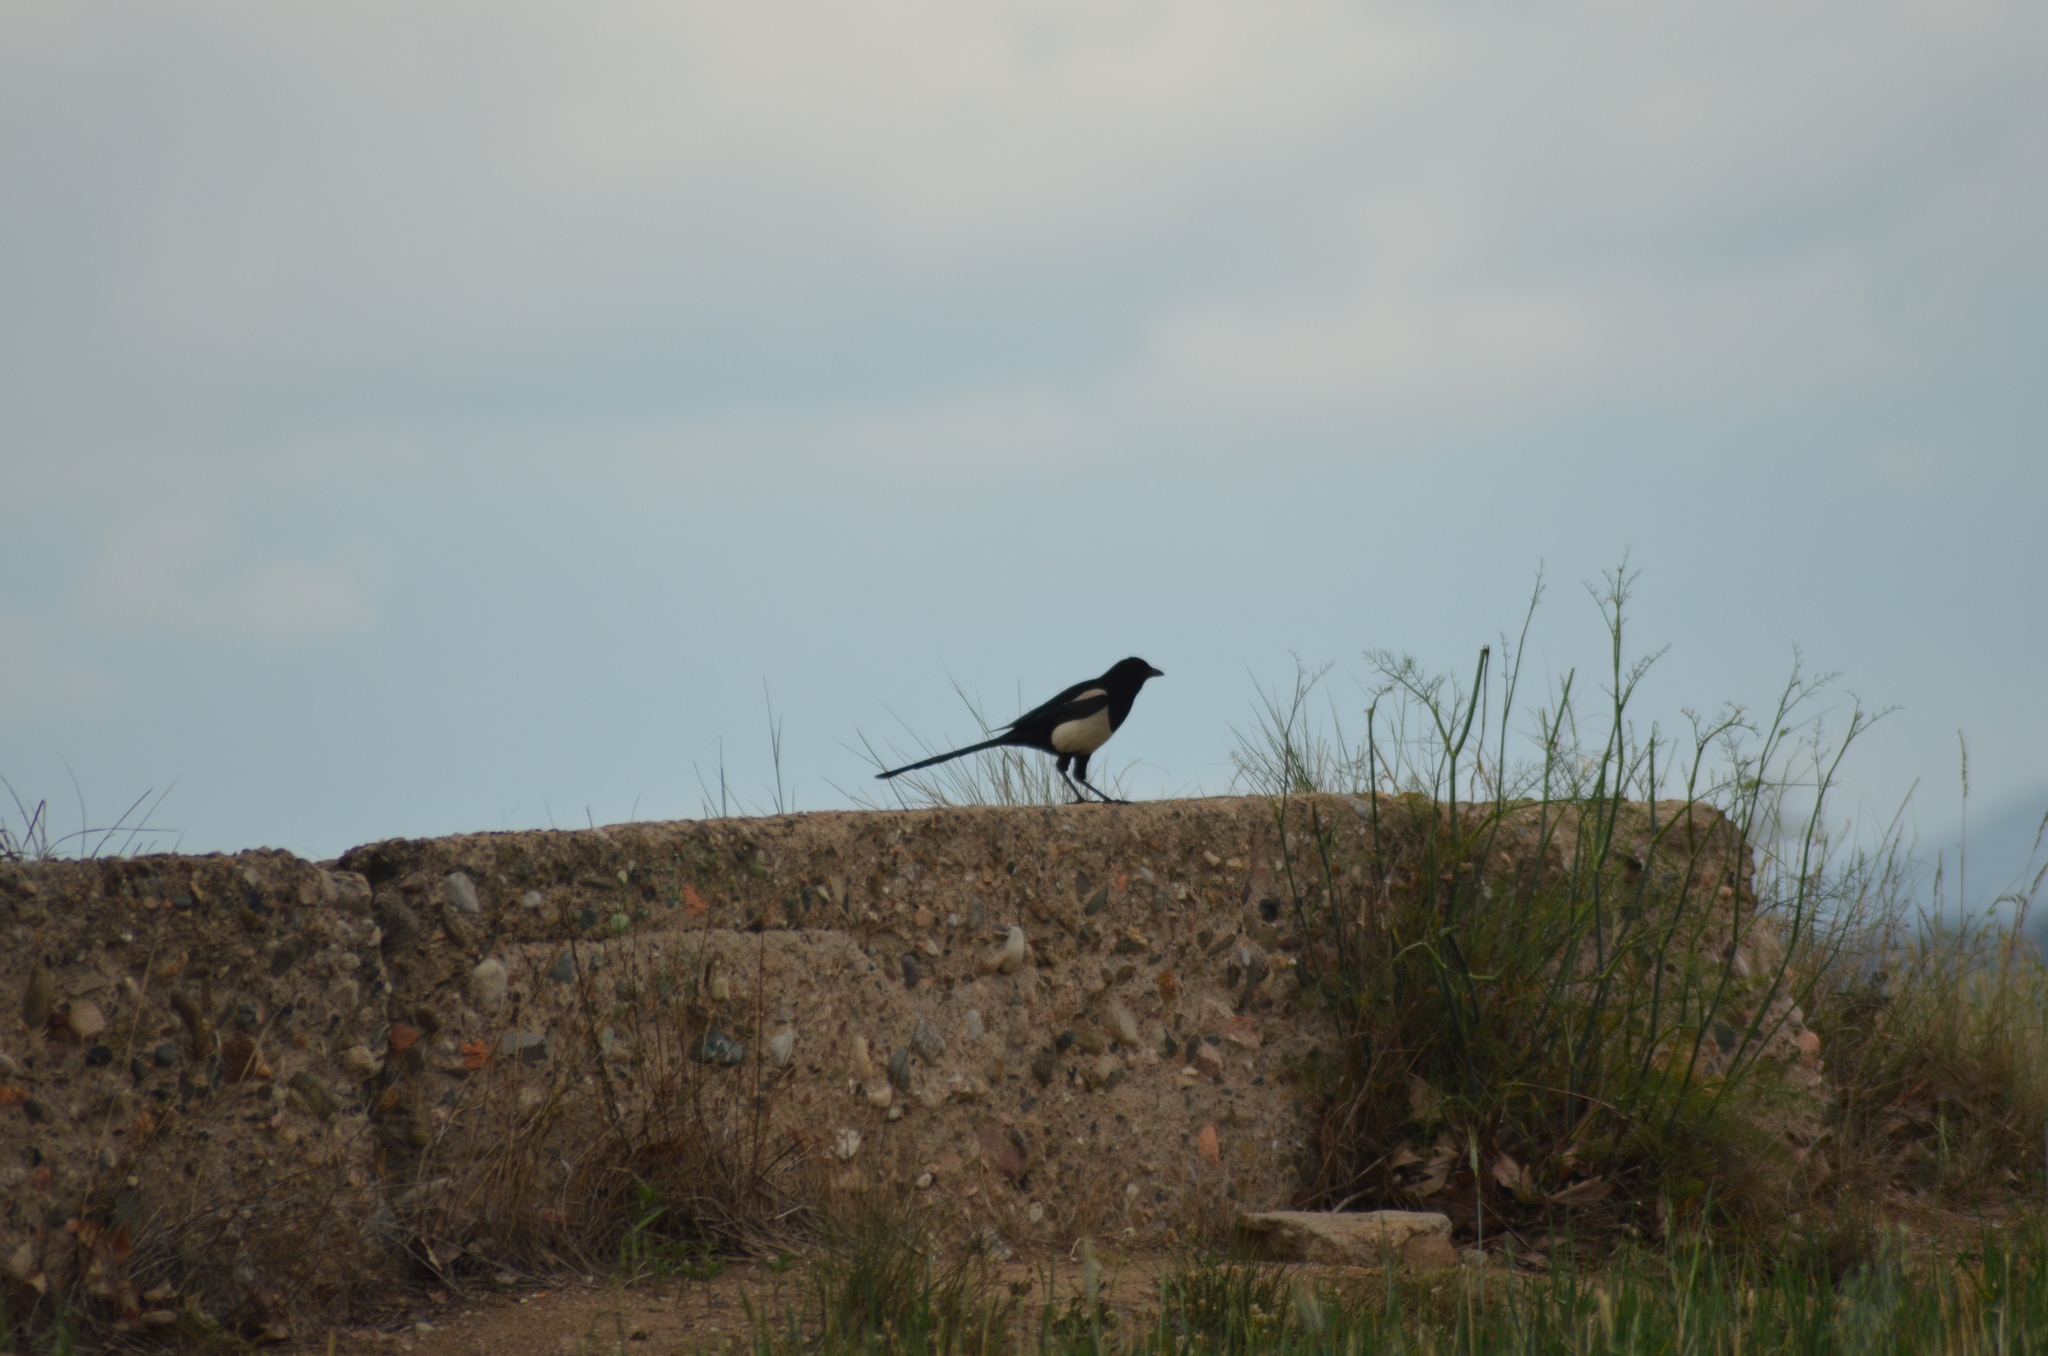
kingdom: Animalia
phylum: Chordata
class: Aves
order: Passeriformes
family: Corvidae
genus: Pica
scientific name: Pica pica
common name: Eurasian magpie
